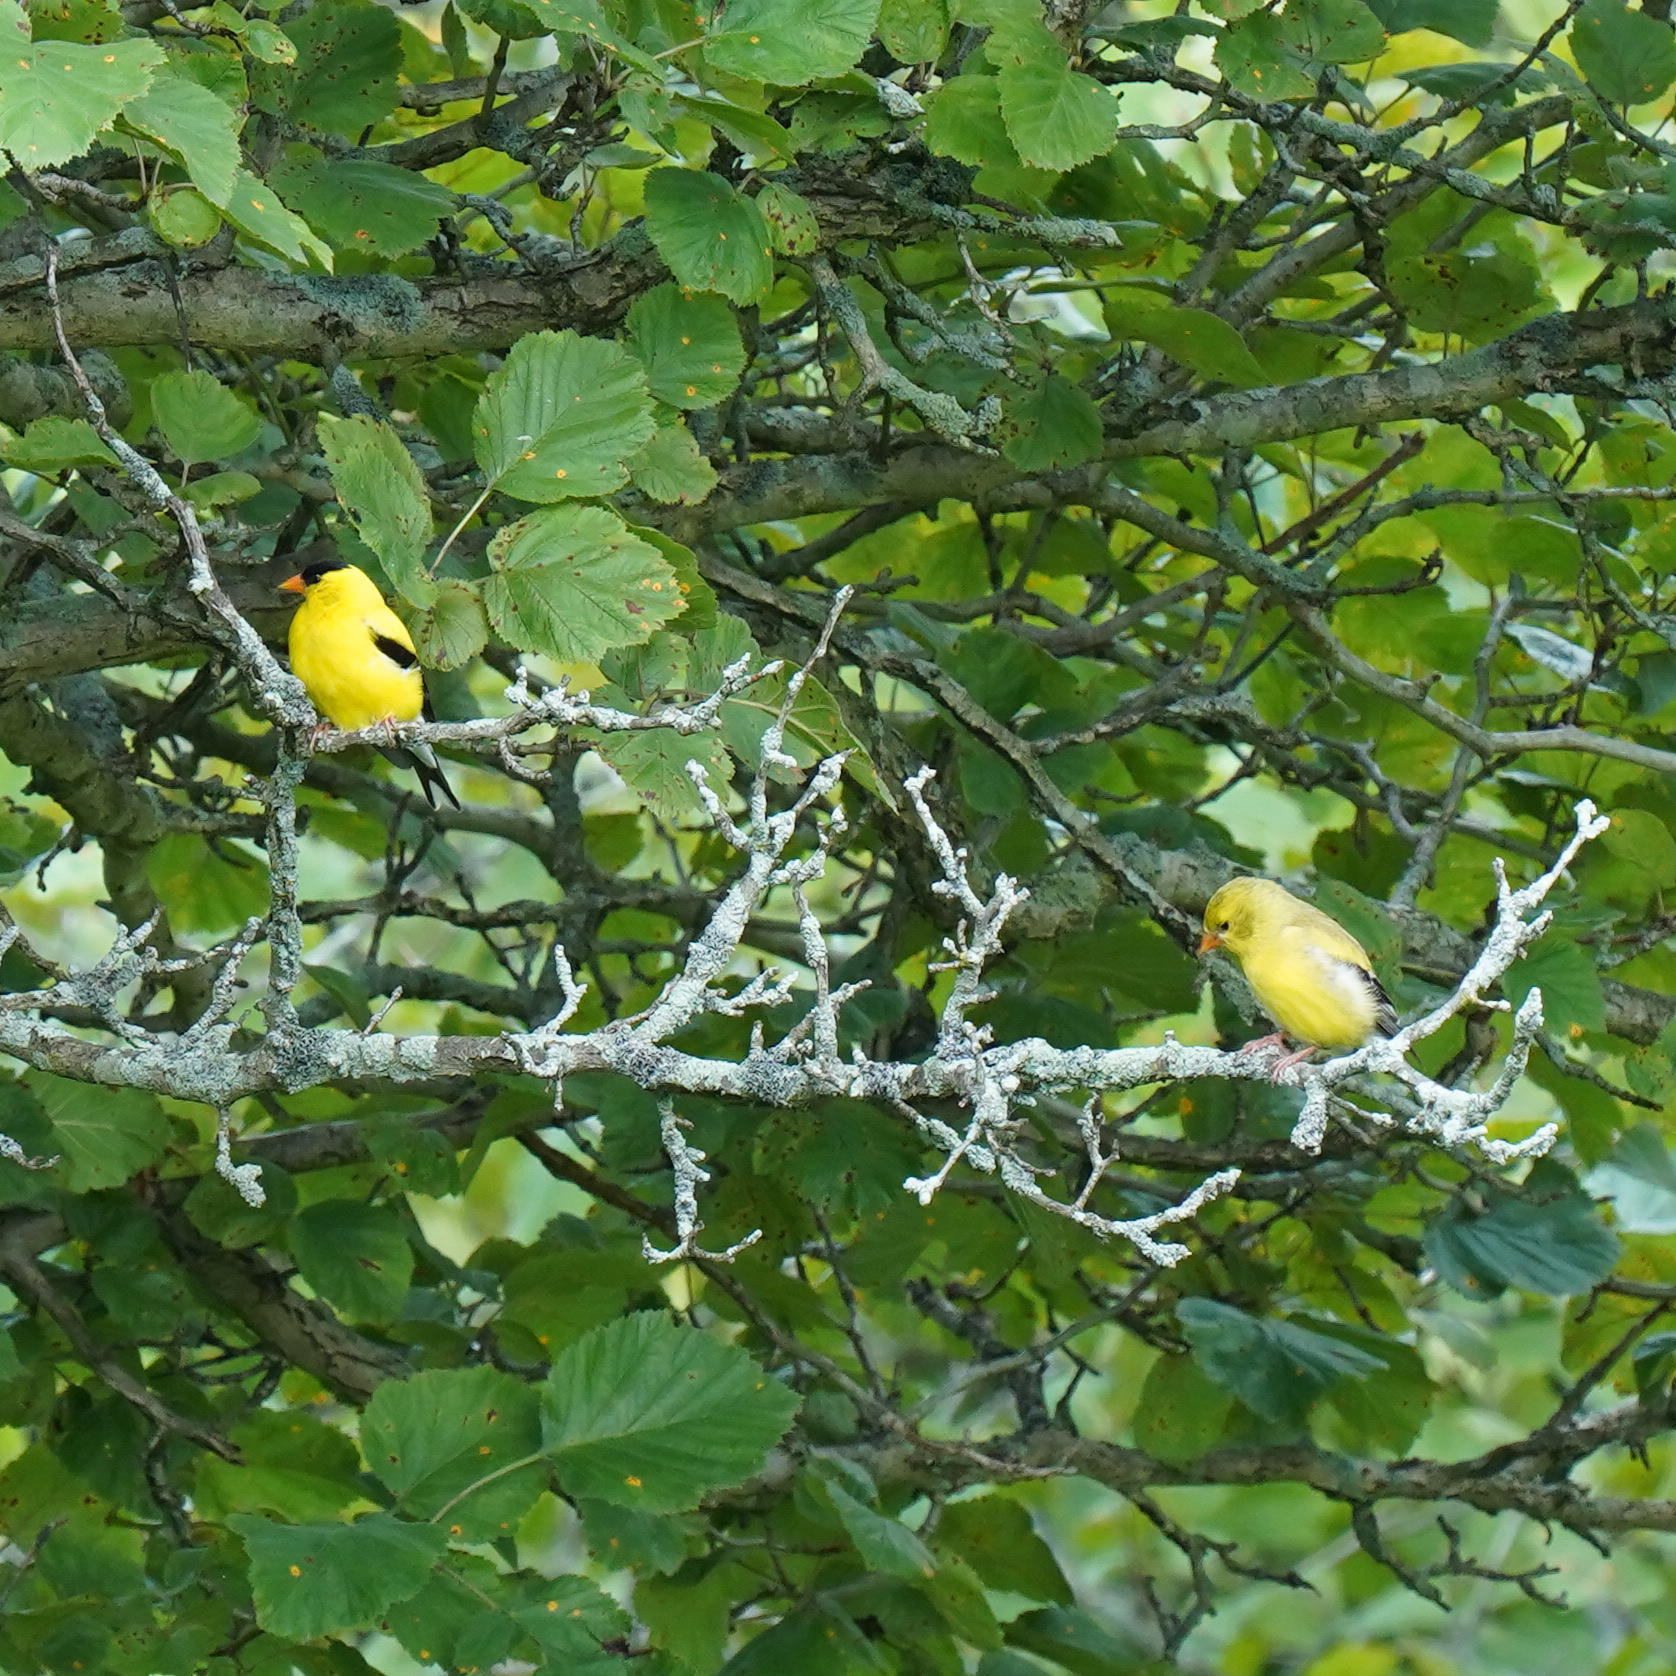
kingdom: Animalia
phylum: Chordata
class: Aves
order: Passeriformes
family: Fringillidae
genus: Spinus
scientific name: Spinus tristis
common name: American goldfinch
